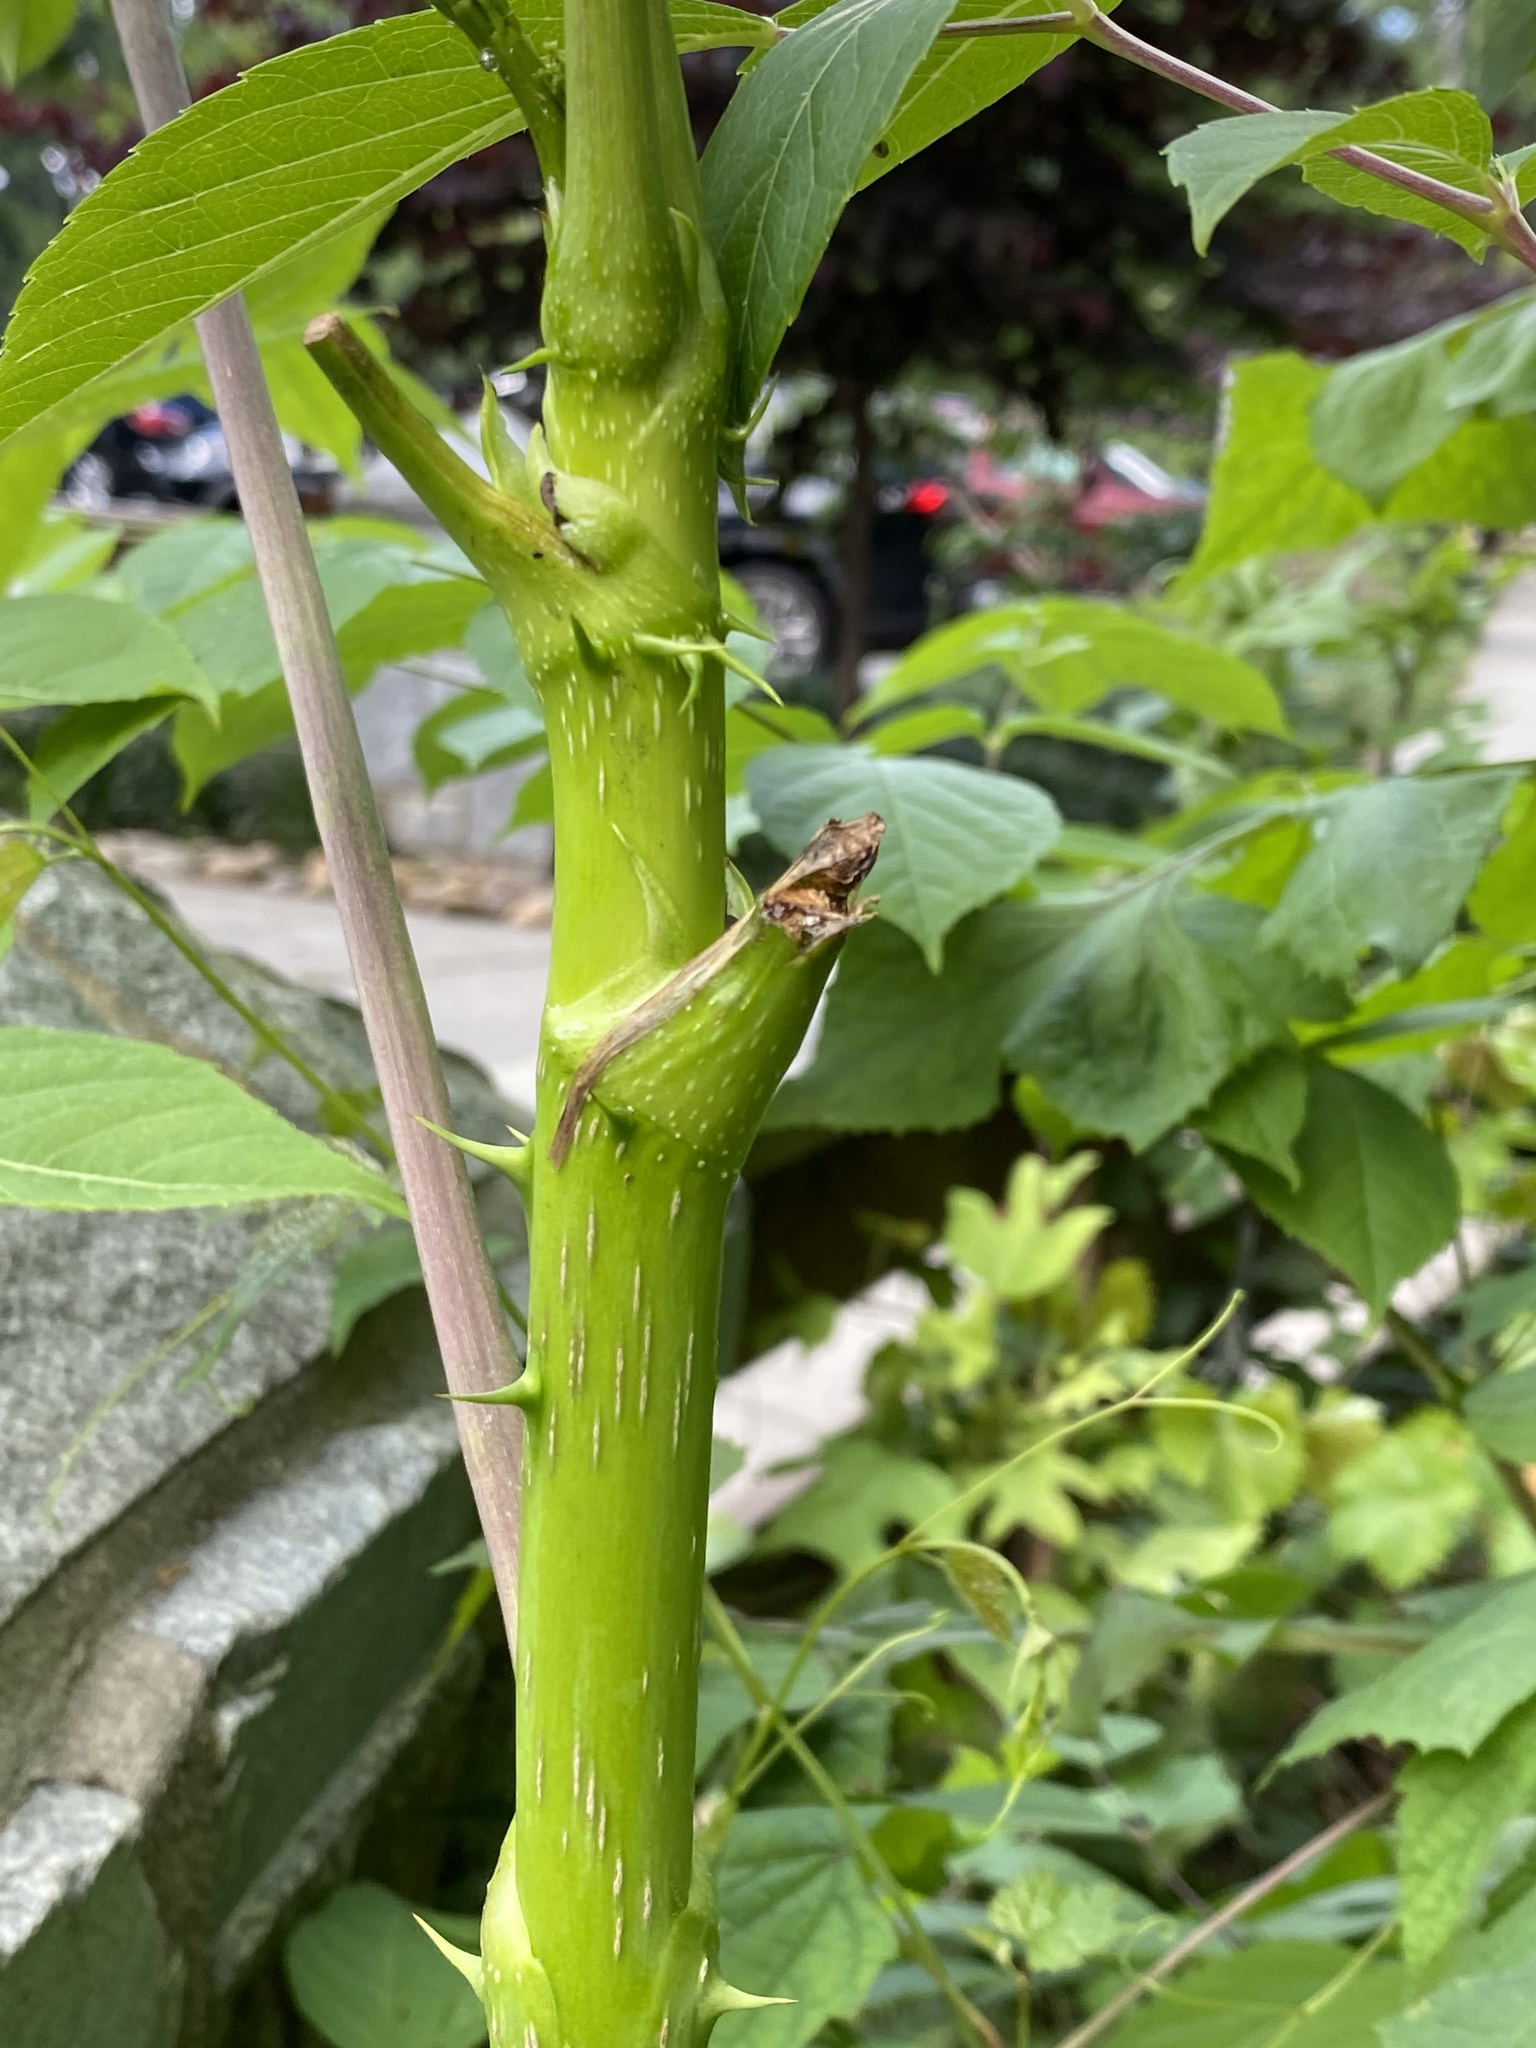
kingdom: Plantae
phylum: Tracheophyta
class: Magnoliopsida
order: Apiales
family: Araliaceae
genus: Aralia
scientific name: Aralia spinosa
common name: Hercules'-club
